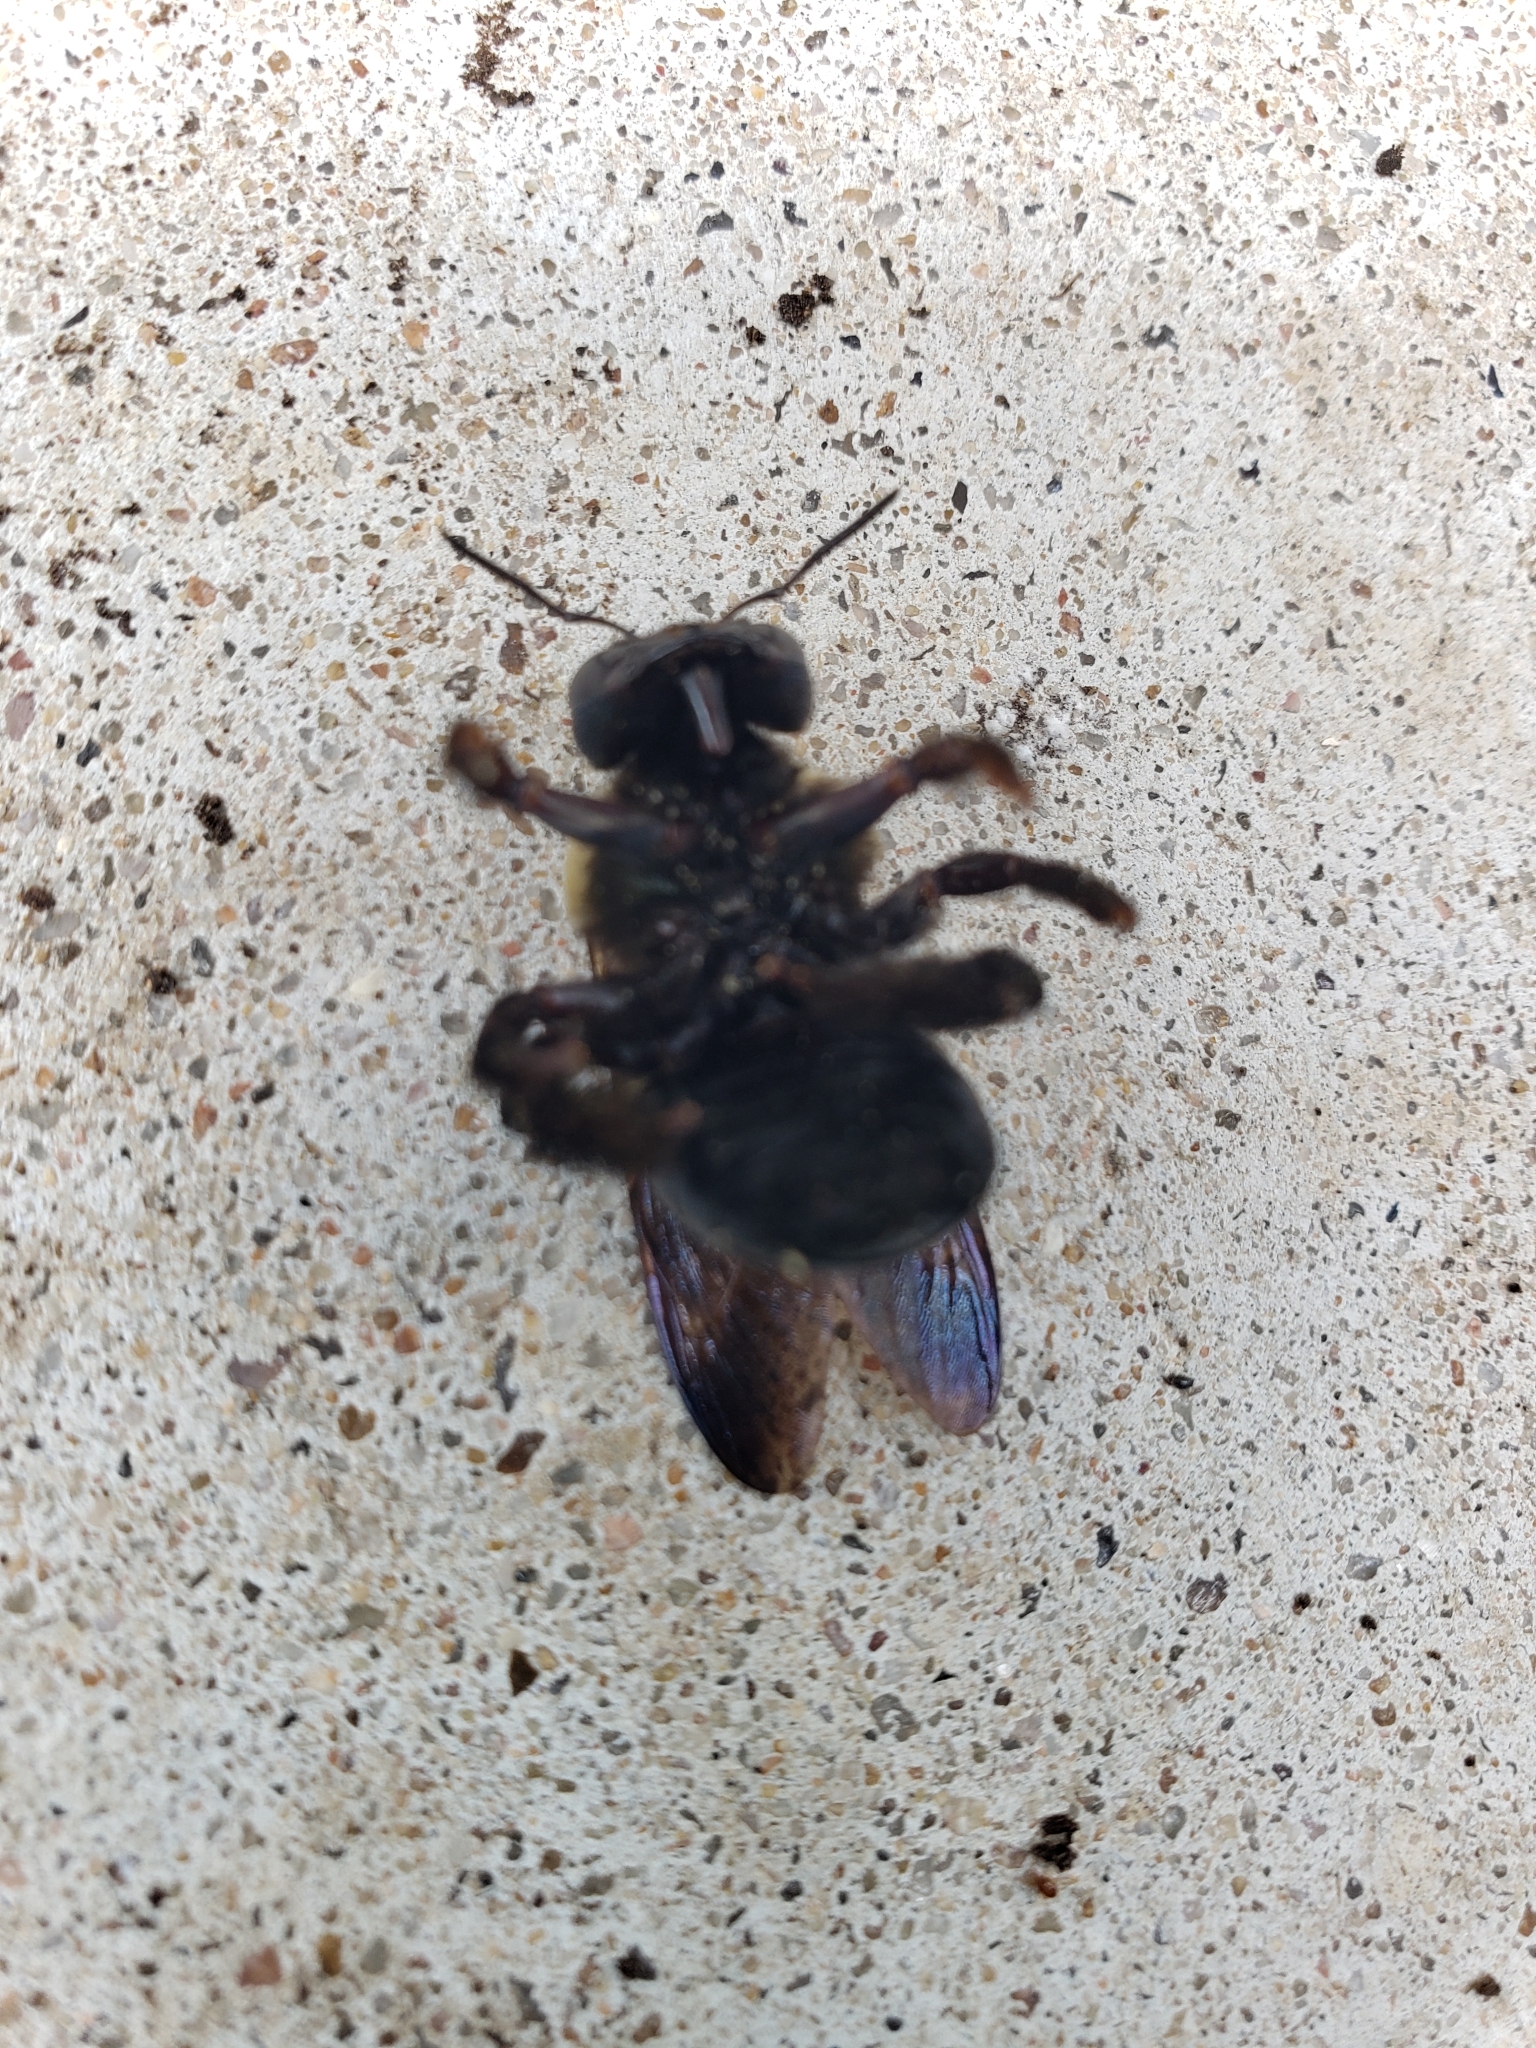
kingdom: Animalia
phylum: Arthropoda
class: Insecta
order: Hymenoptera
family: Apidae
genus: Xylocopa
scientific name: Xylocopa virginica
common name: Carpenter bee
